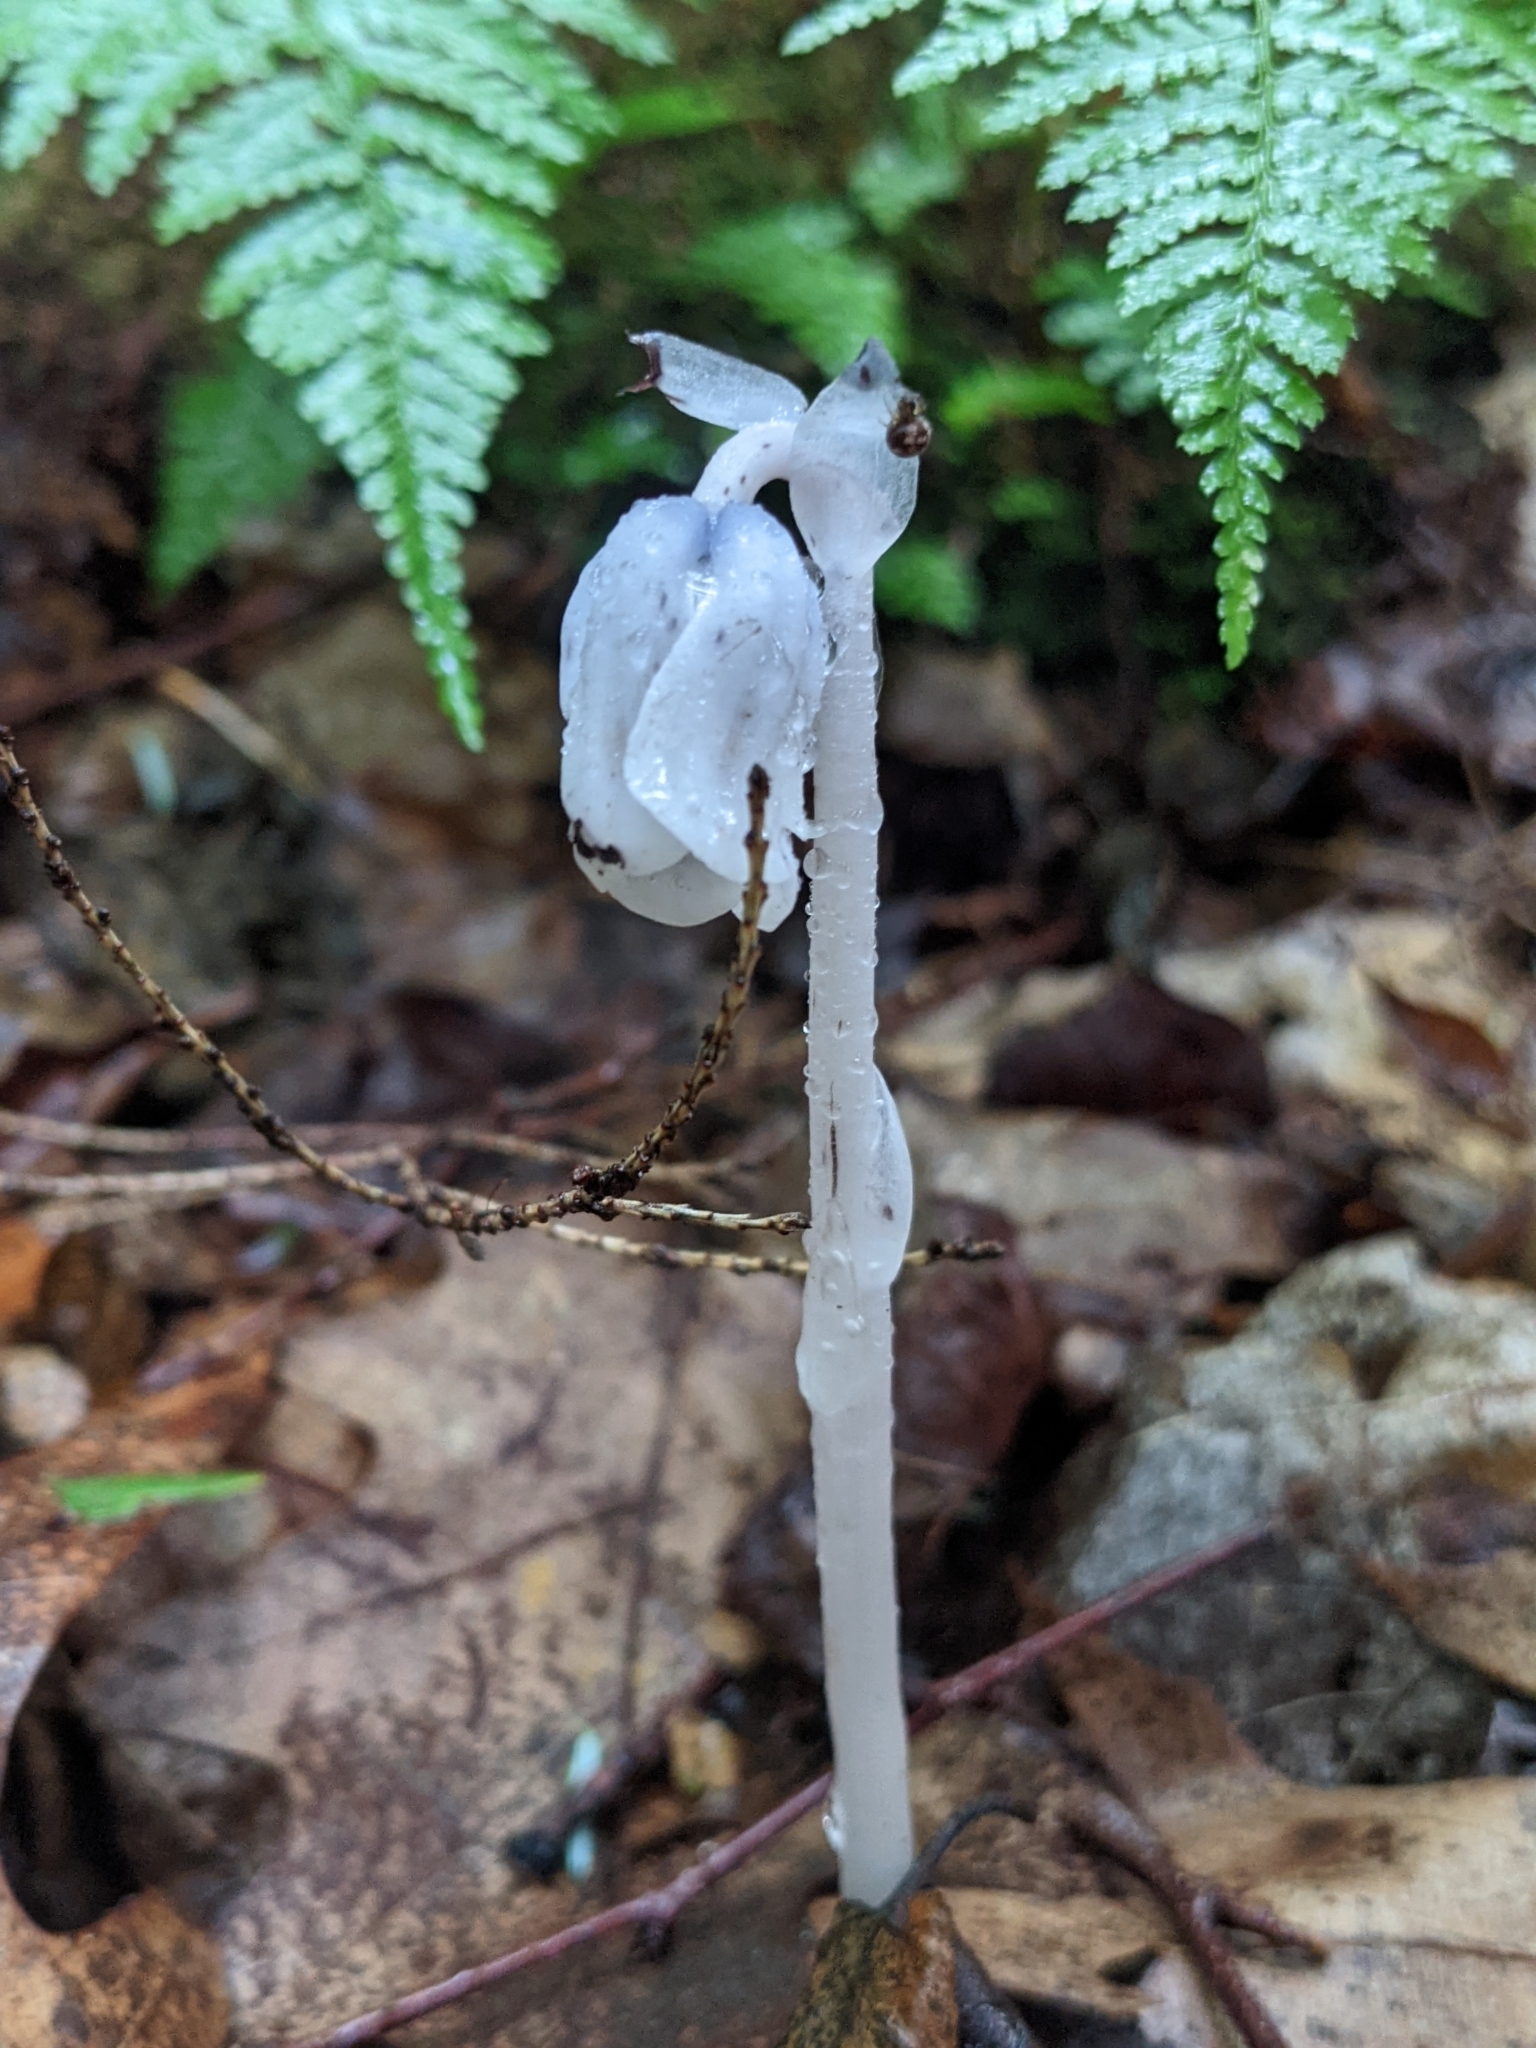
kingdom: Plantae
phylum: Tracheophyta
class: Magnoliopsida
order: Ericales
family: Ericaceae
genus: Monotropa
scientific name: Monotropa uniflora
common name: Convulsion root
